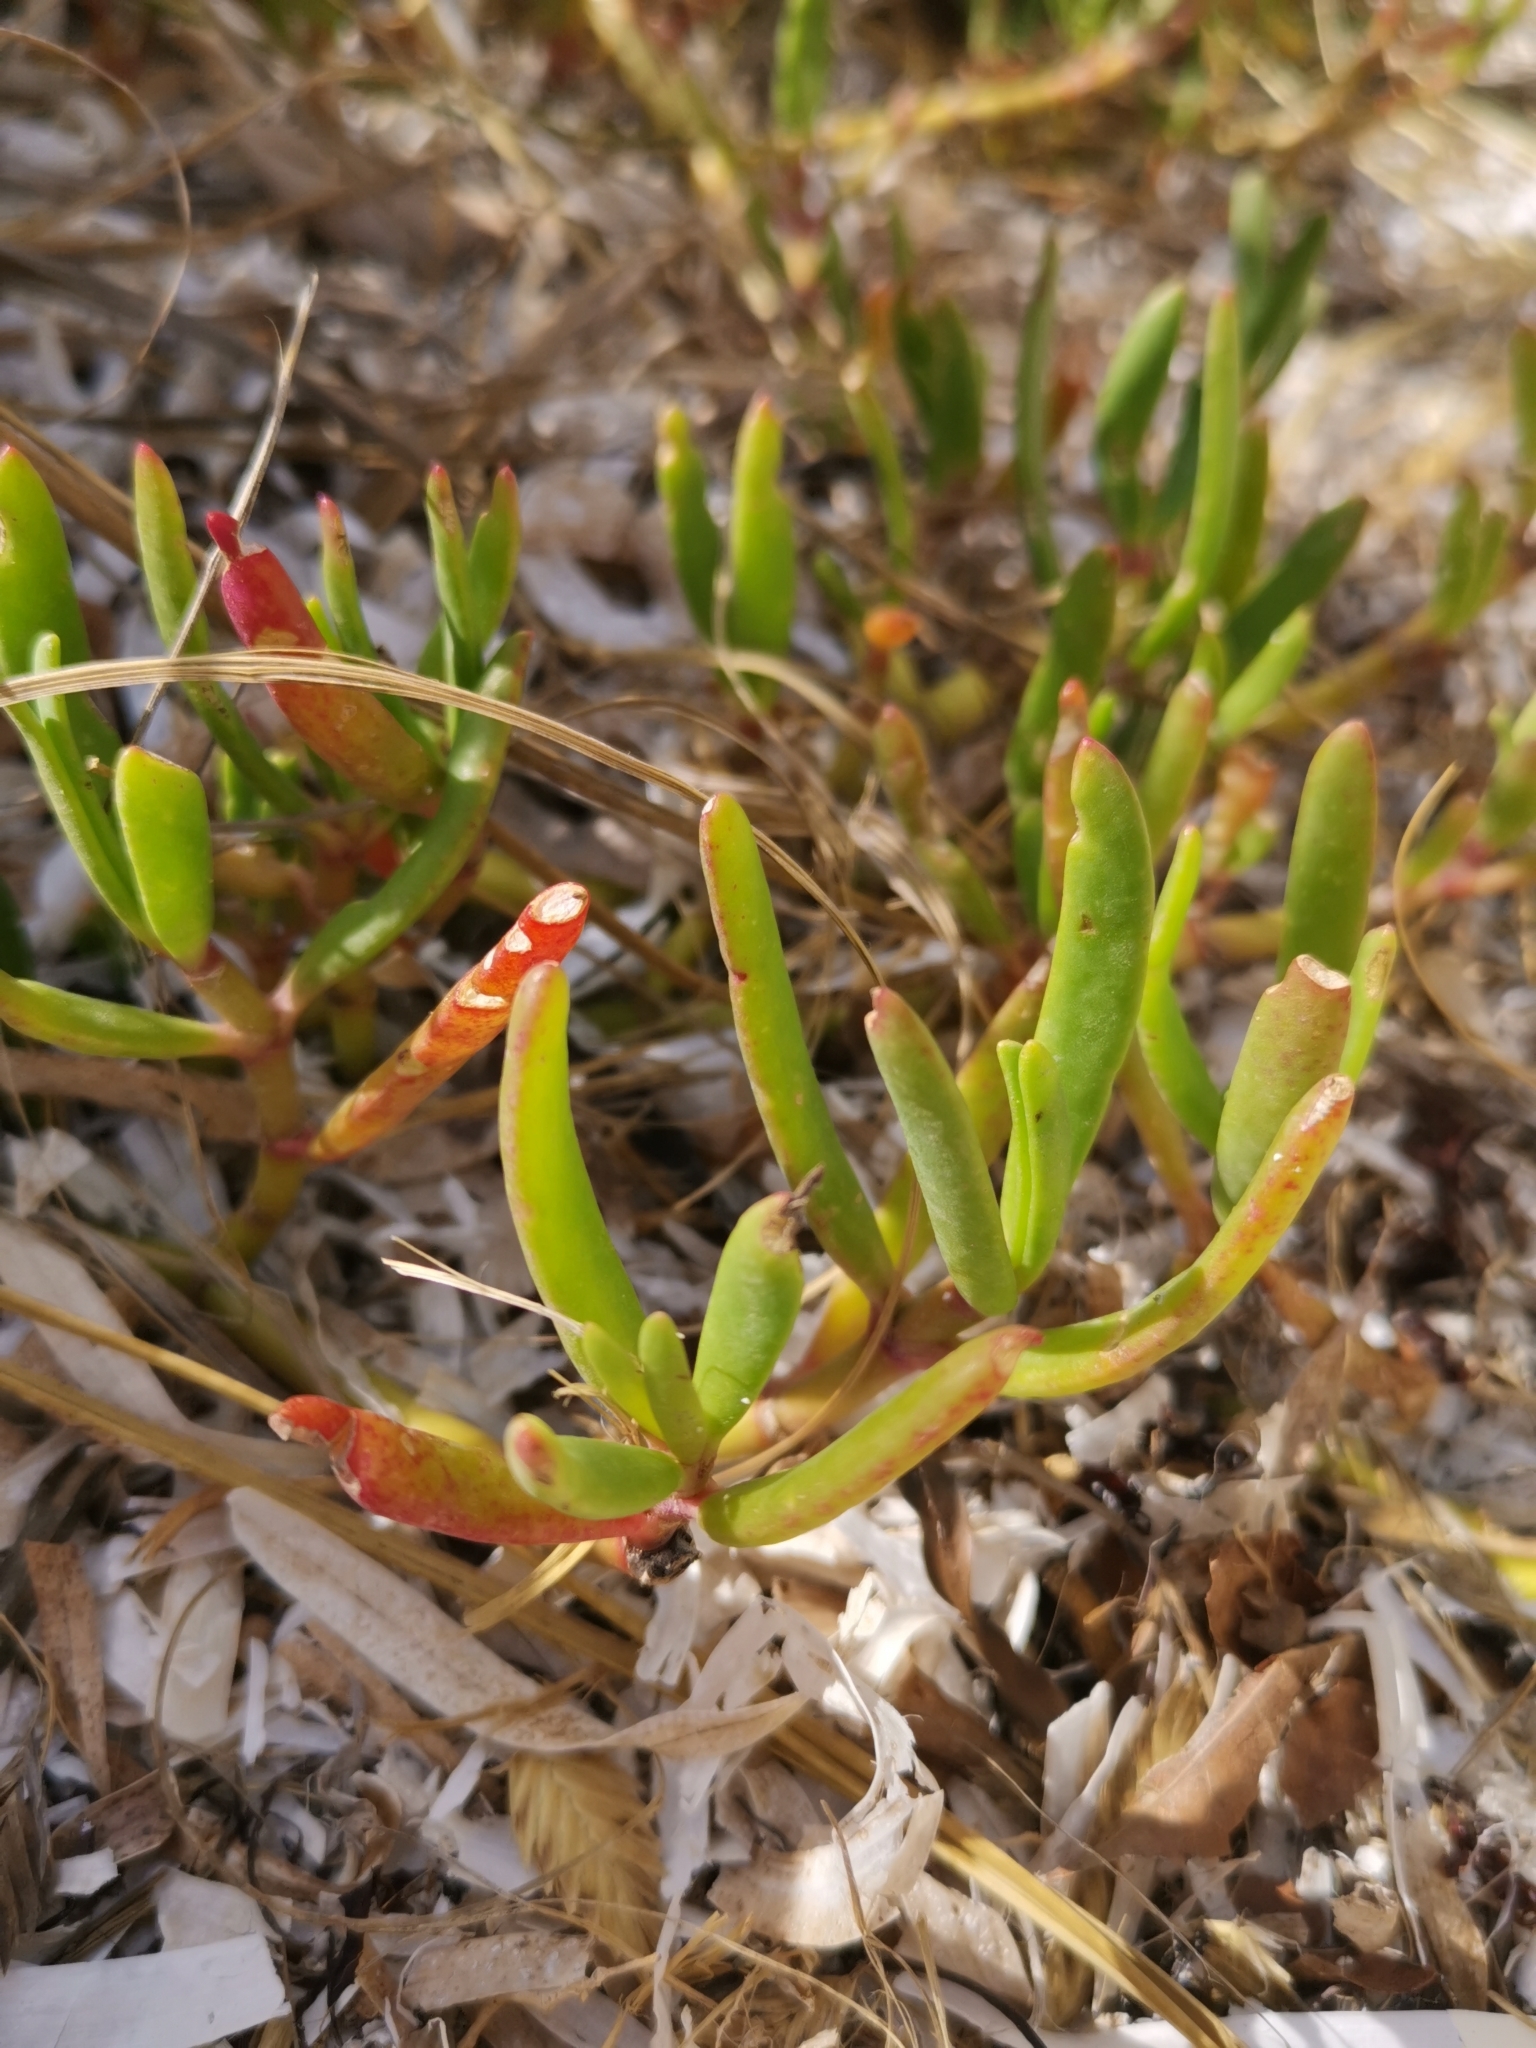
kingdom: Plantae
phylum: Tracheophyta
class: Magnoliopsida
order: Caryophyllales
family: Aizoaceae
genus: Sesuvium
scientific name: Sesuvium portulacastrum
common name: Sea-purslane
